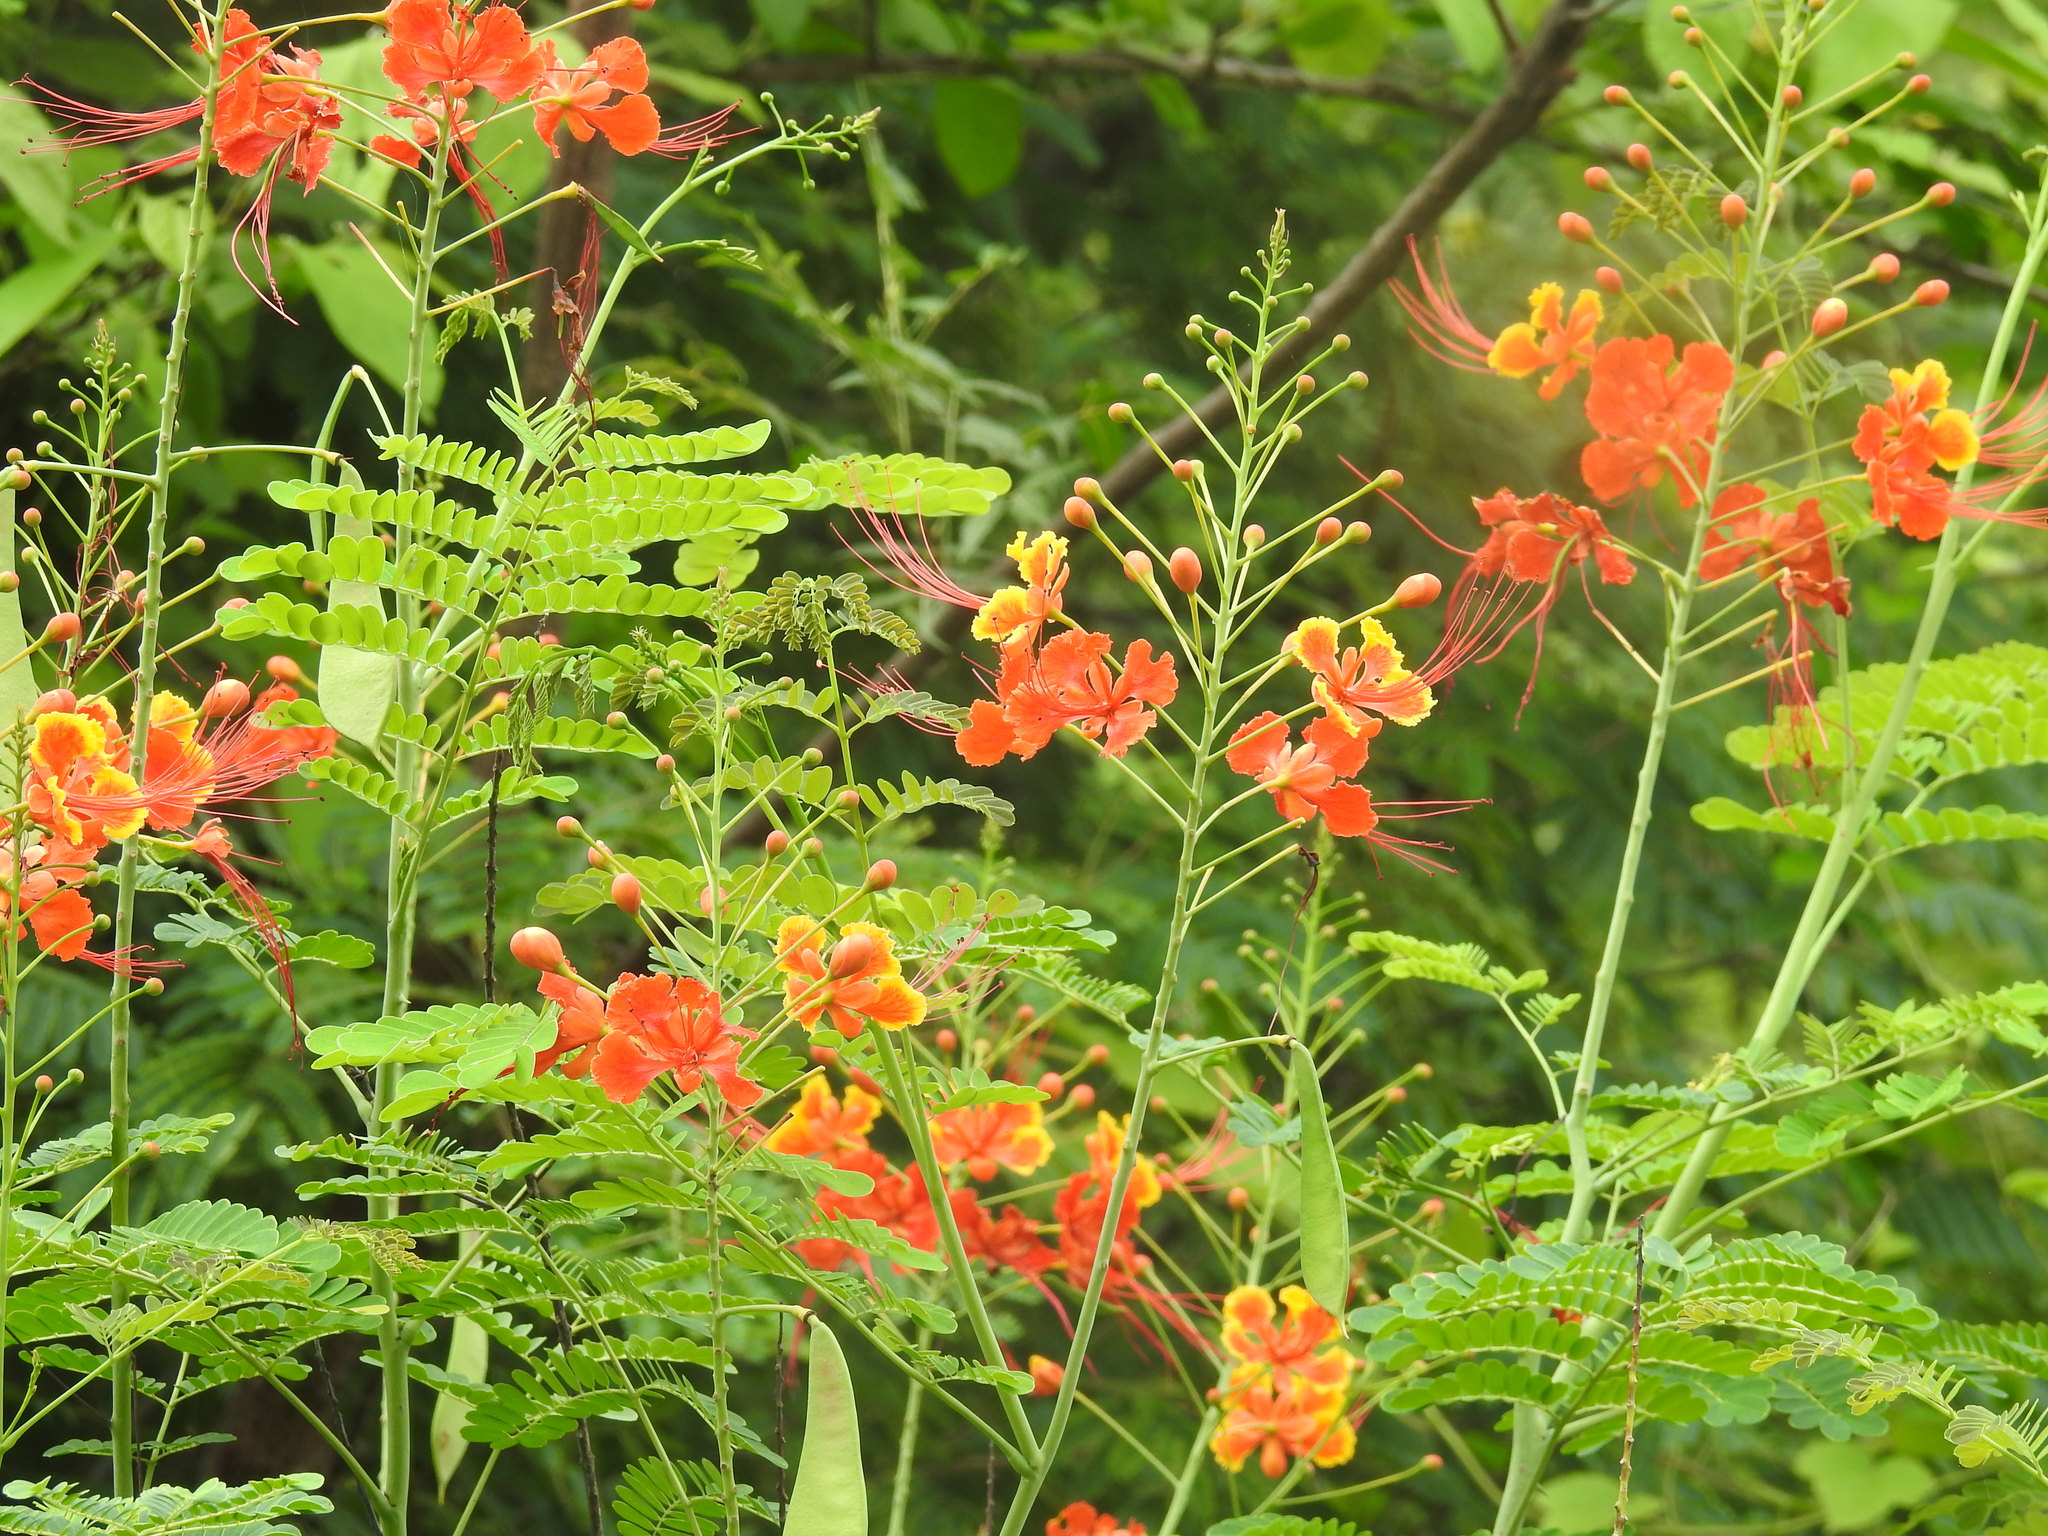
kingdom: Plantae
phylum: Tracheophyta
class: Magnoliopsida
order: Fabales
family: Fabaceae
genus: Caesalpinia
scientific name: Caesalpinia pulcherrima
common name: Pride-of-barbados
